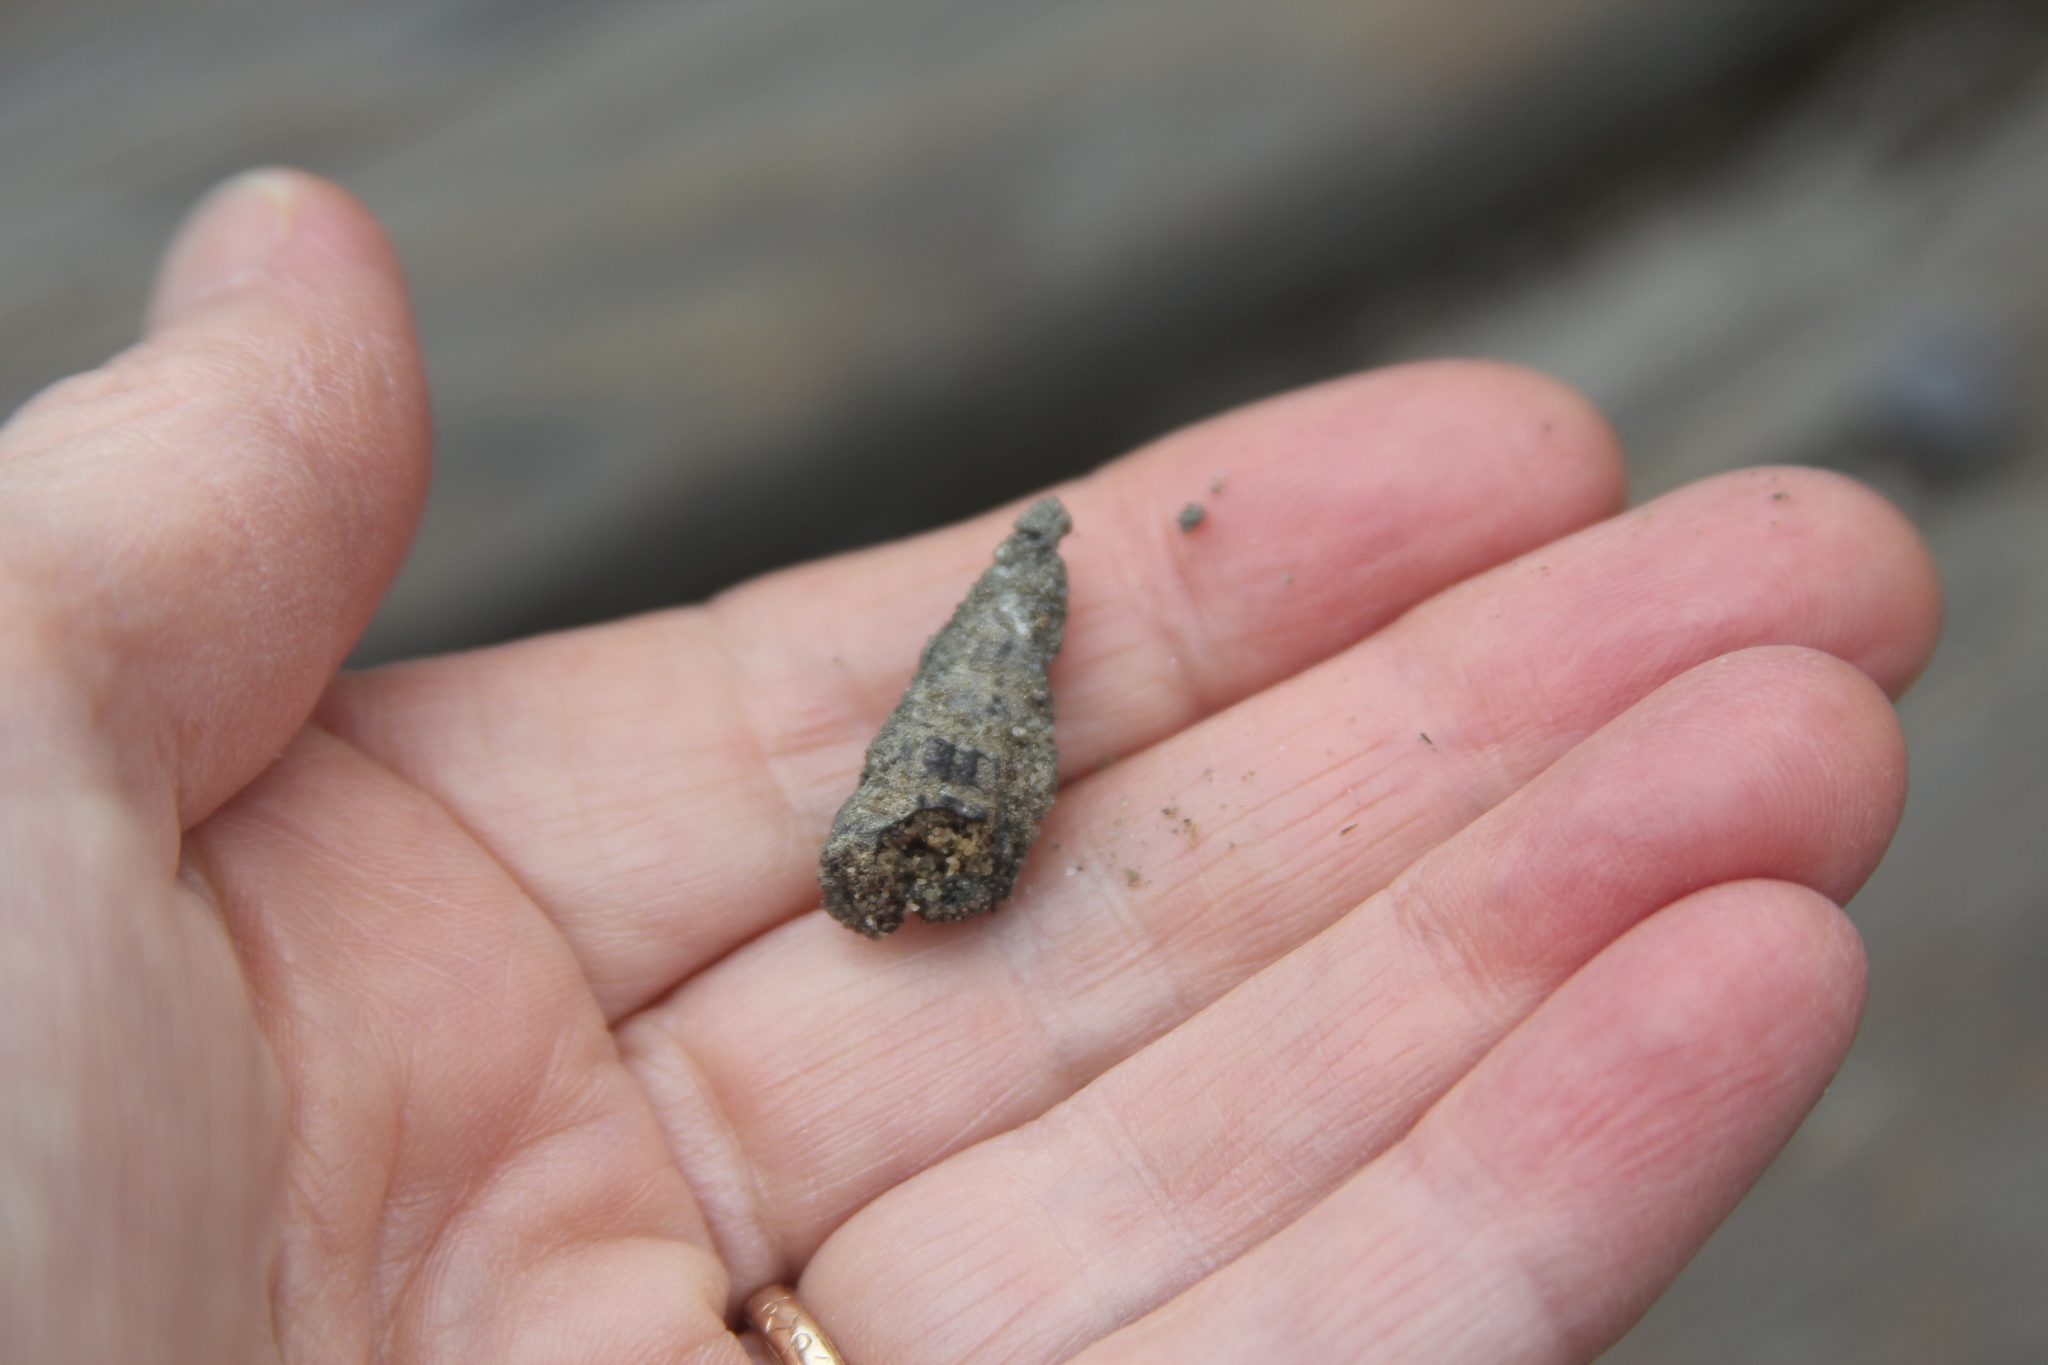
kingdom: Animalia
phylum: Mollusca
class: Gastropoda
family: Potamididae
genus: Cerithideopsis
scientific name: Cerithideopsis californica
